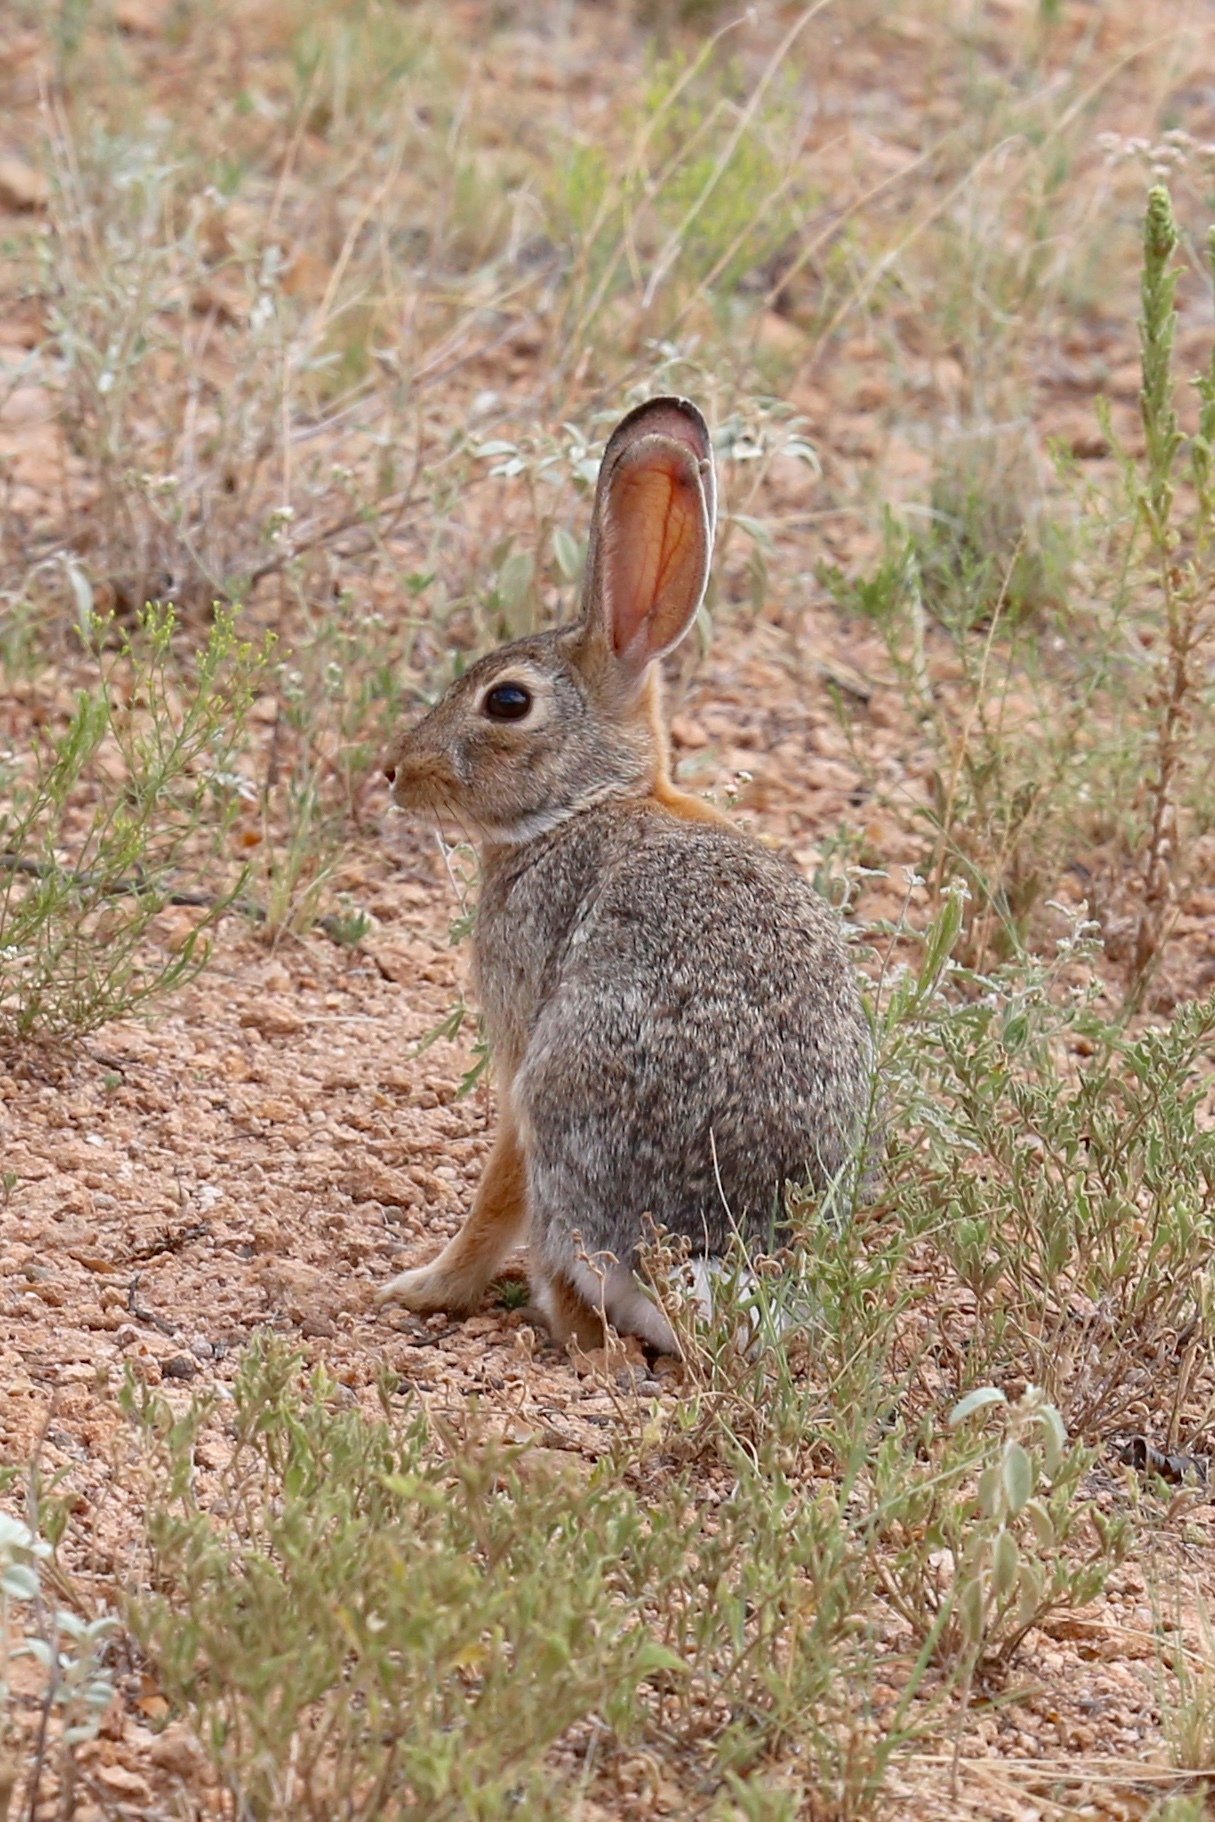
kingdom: Animalia
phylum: Chordata
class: Mammalia
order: Lagomorpha
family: Leporidae
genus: Sylvilagus
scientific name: Sylvilagus audubonii
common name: Desert cottontail
